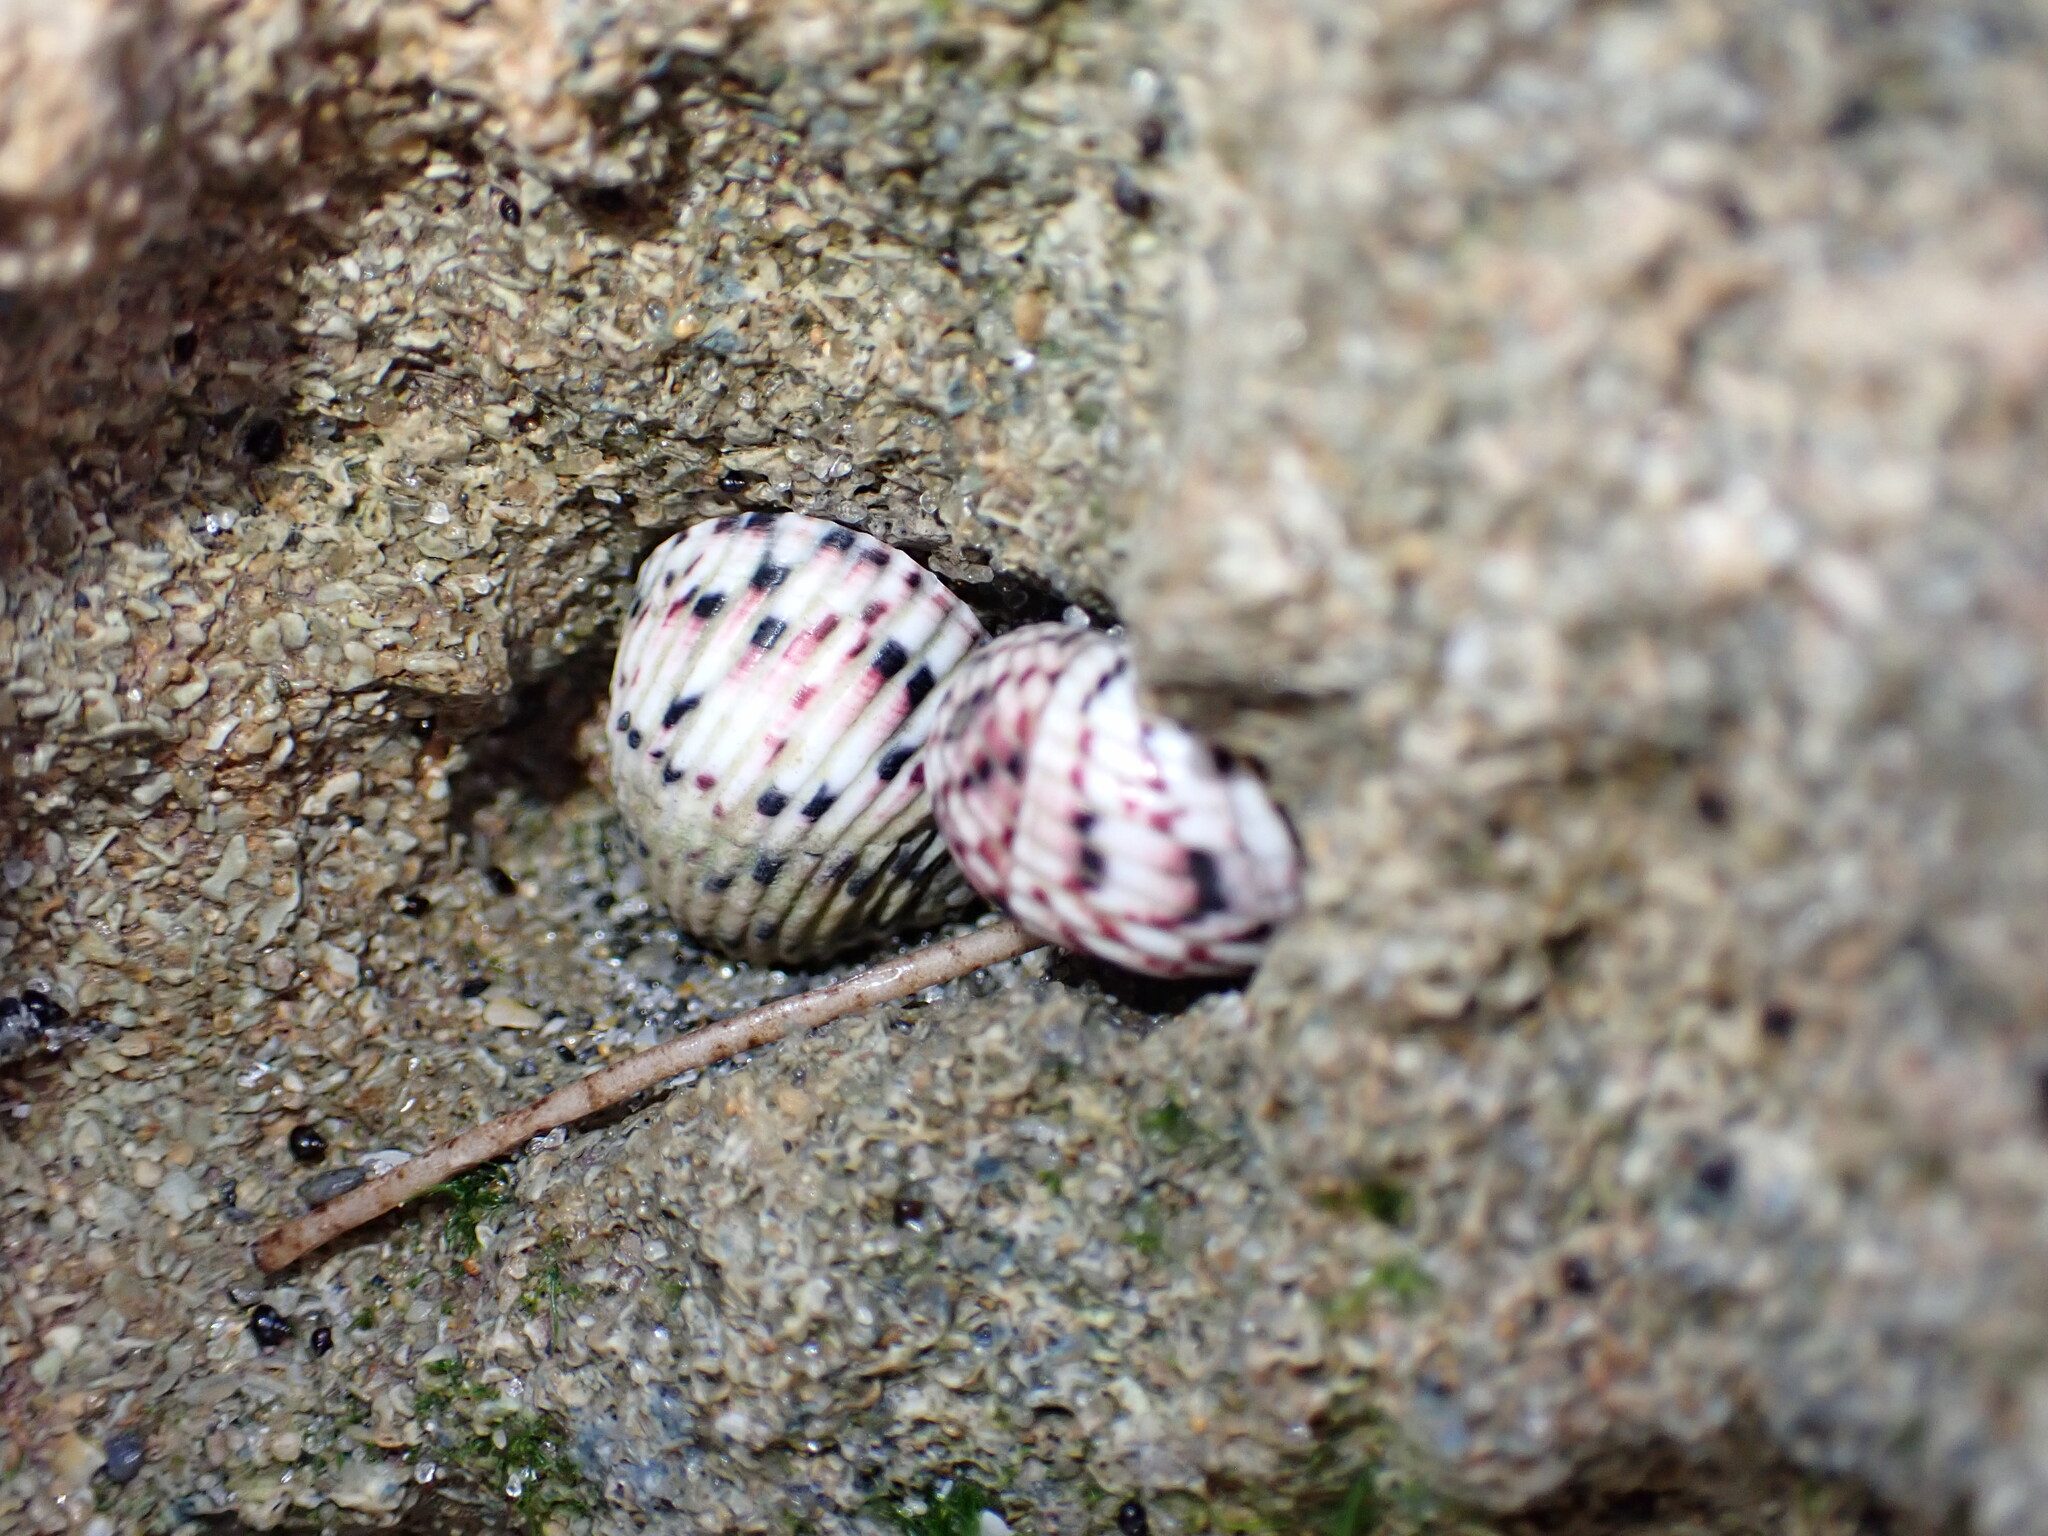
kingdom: Animalia
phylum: Mollusca
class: Gastropoda
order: Cycloneritida
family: Neritidae
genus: Nerita
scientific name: Nerita versicolor
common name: Four-tooth nerite
